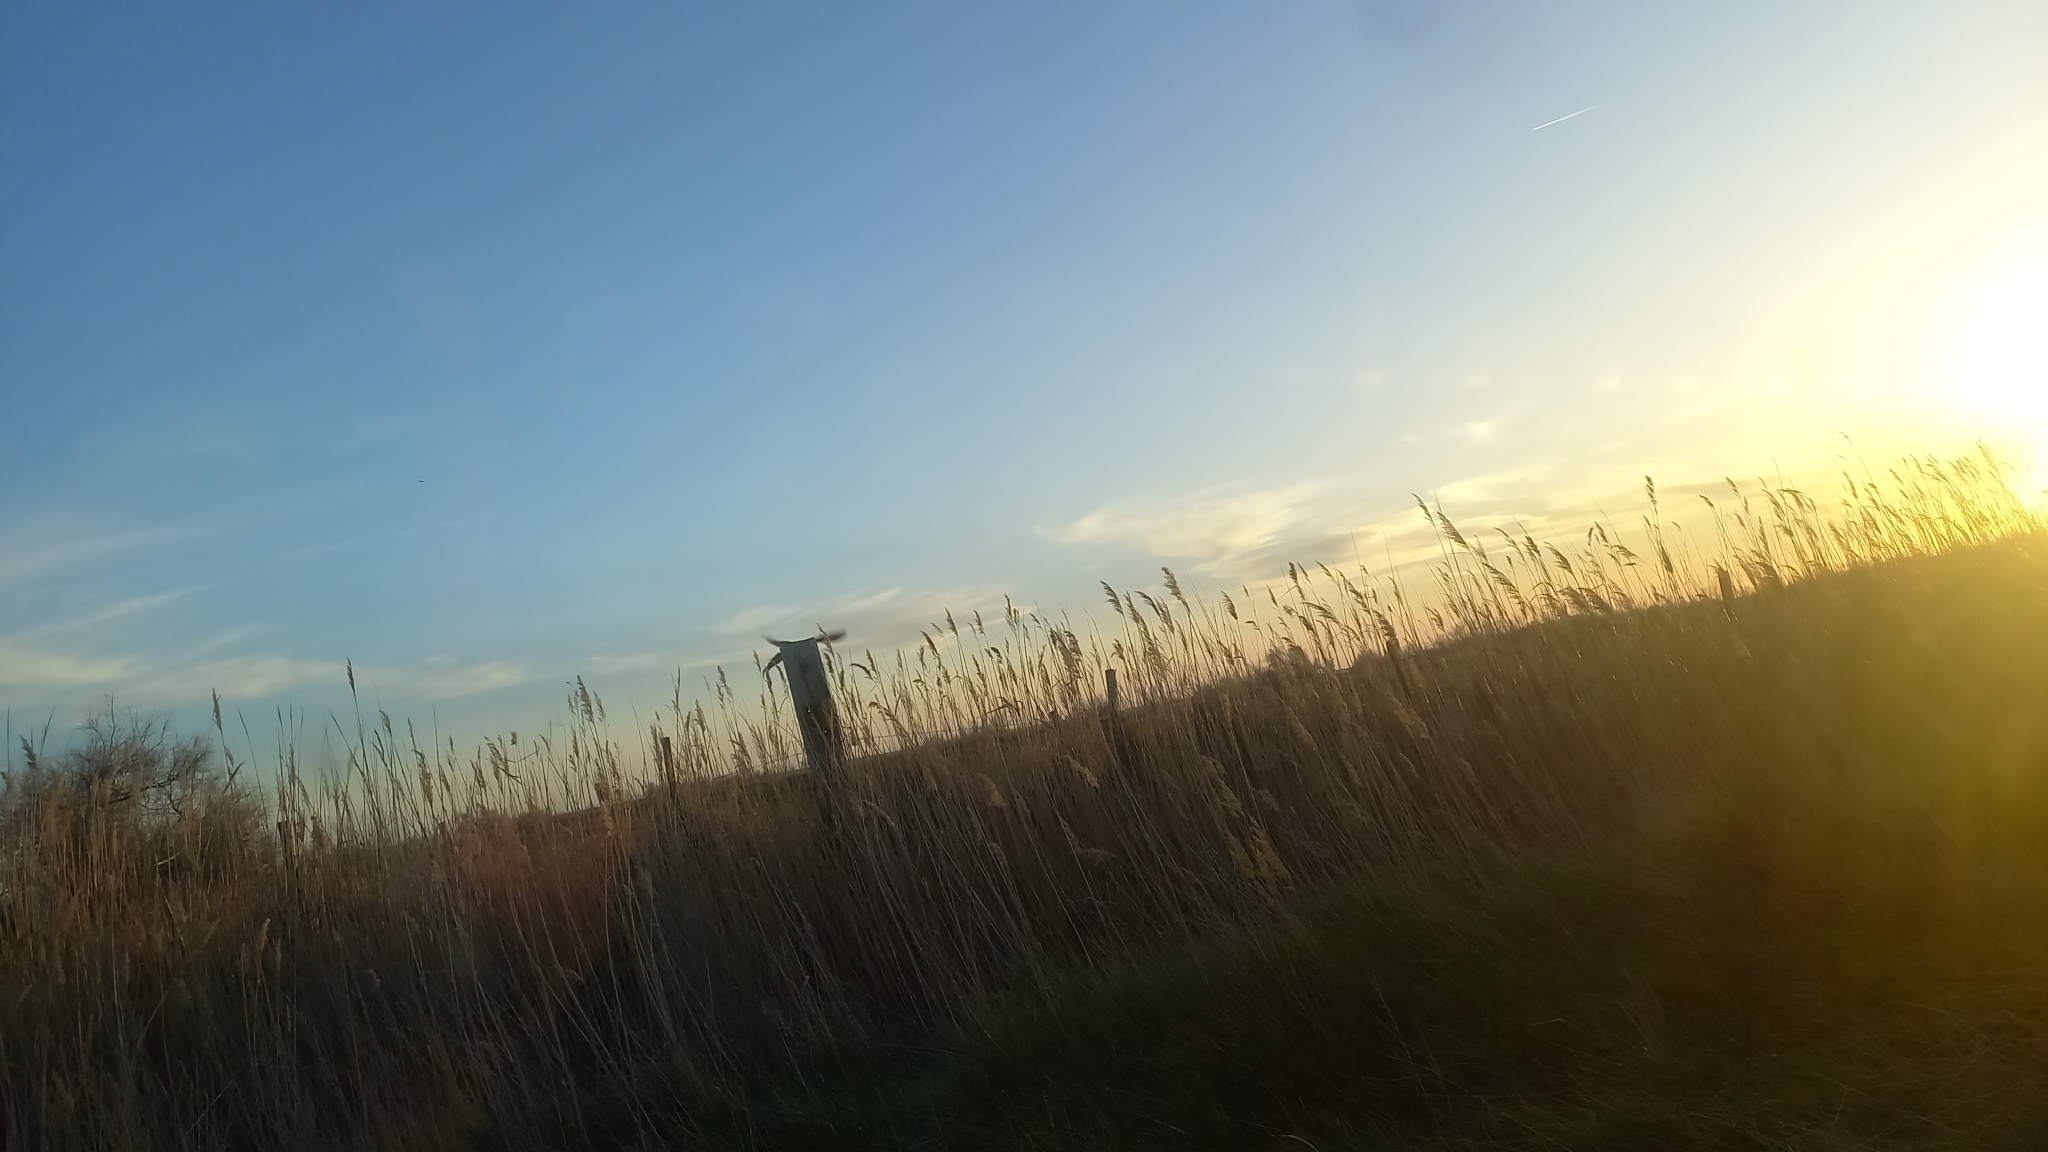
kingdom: Animalia
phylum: Chordata
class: Aves
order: Galliformes
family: Phasianidae
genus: Phasianus
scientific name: Phasianus colchicus
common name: Common pheasant
